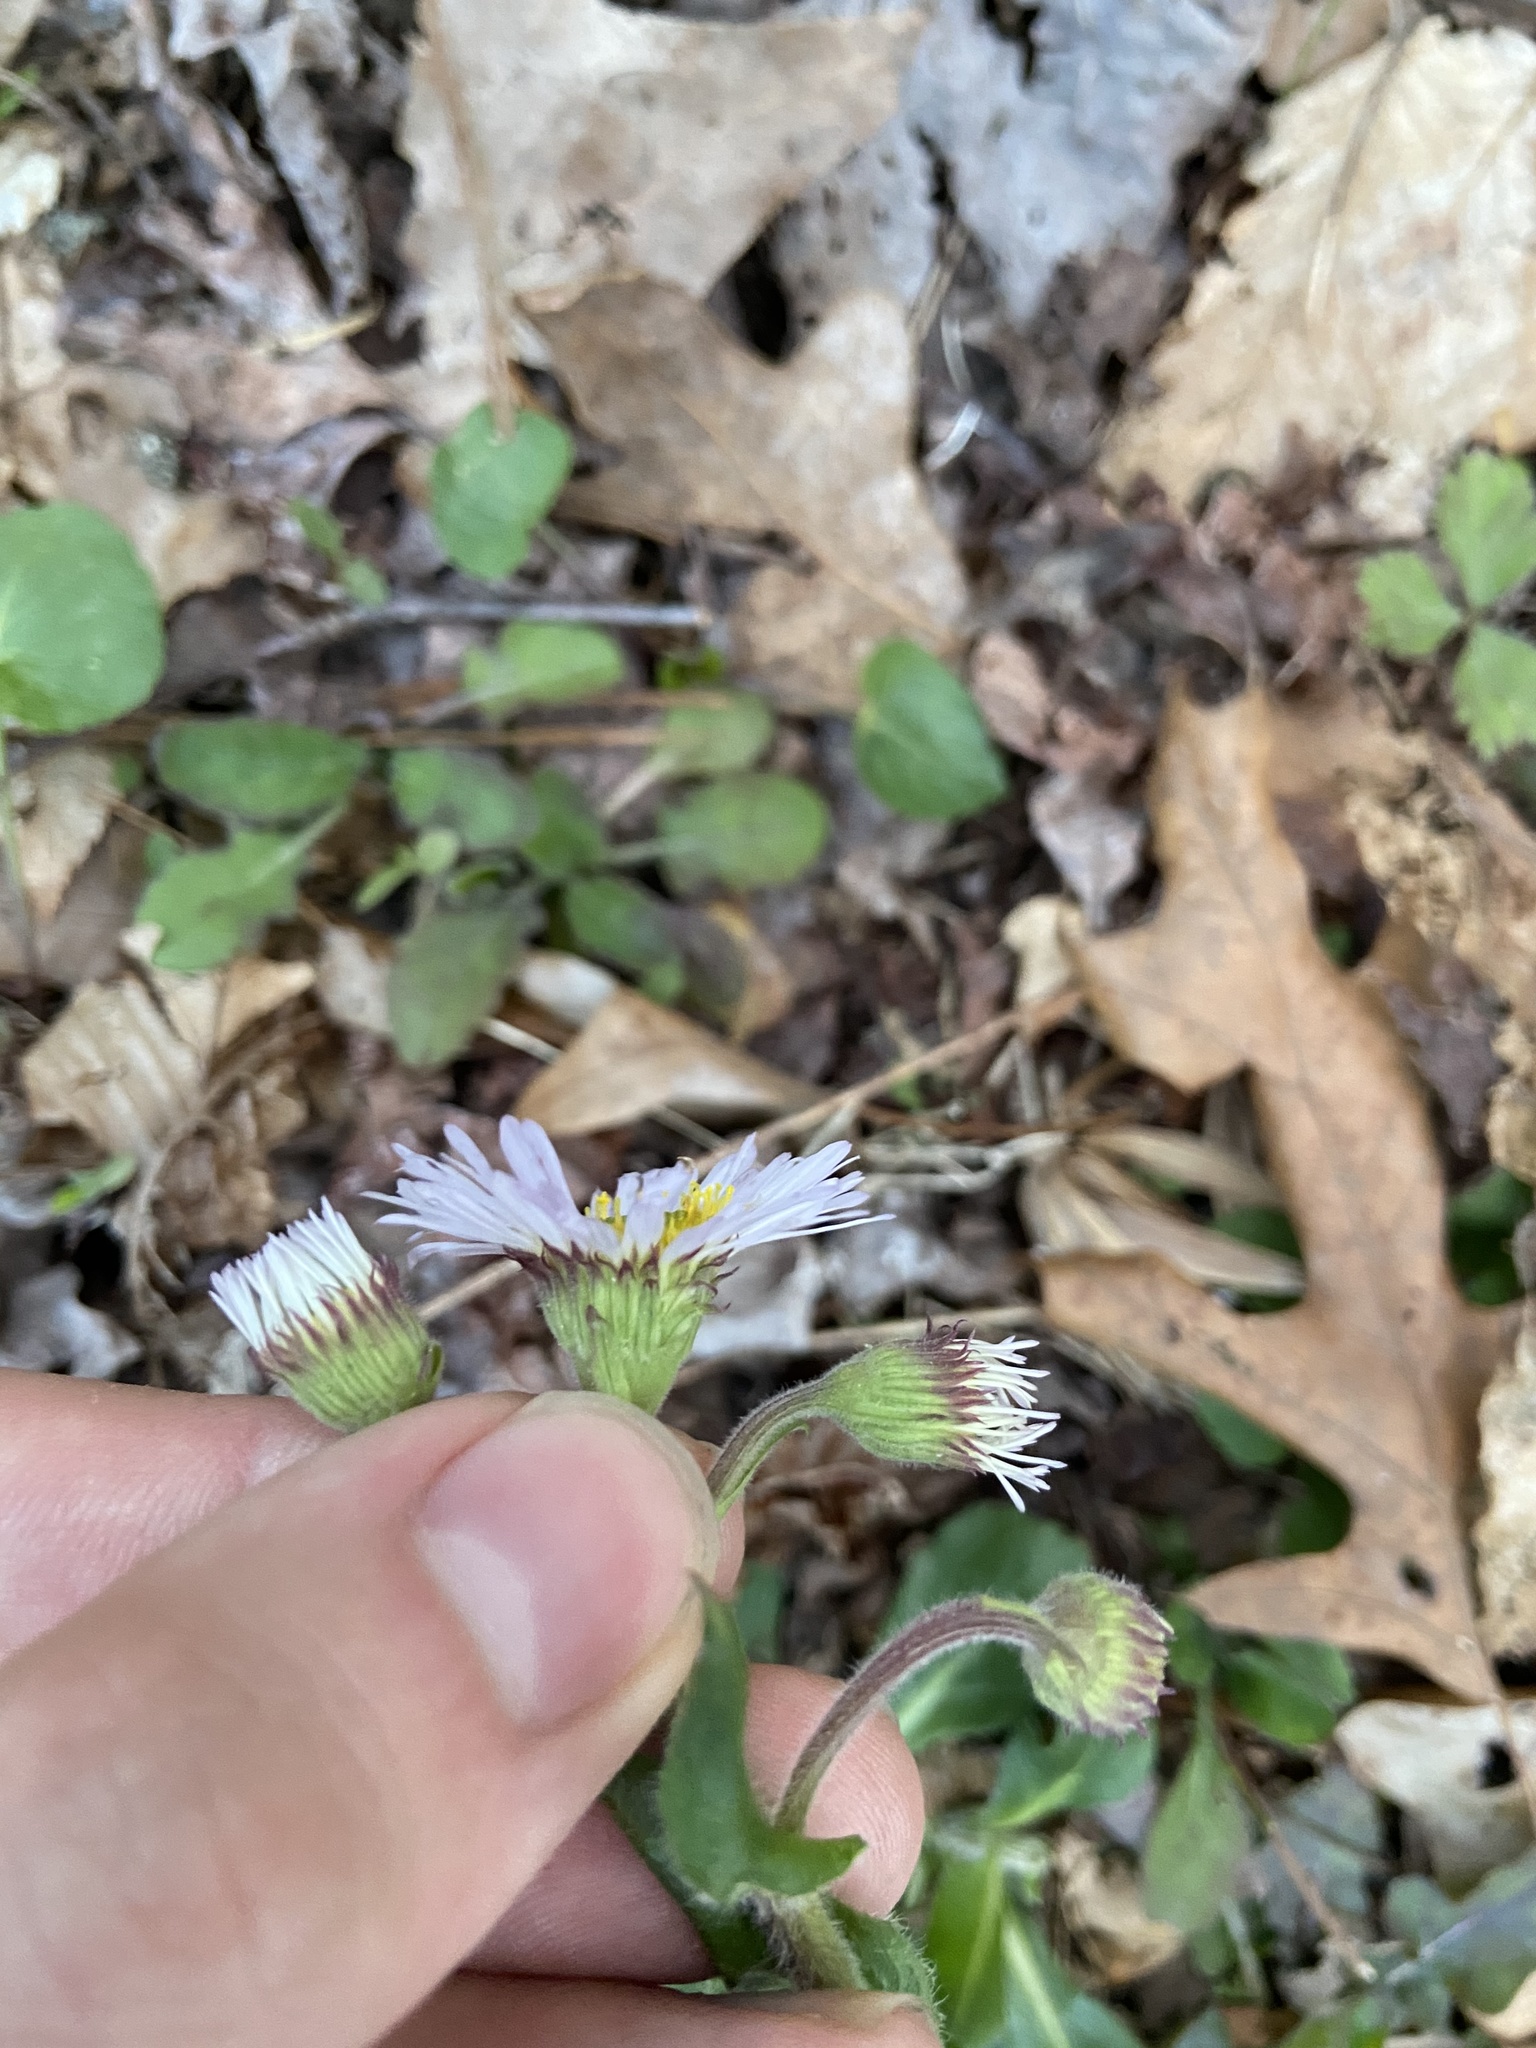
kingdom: Plantae
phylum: Tracheophyta
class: Magnoliopsida
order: Asterales
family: Asteraceae
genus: Erigeron
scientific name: Erigeron pulchellus
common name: Hairy fleabane
